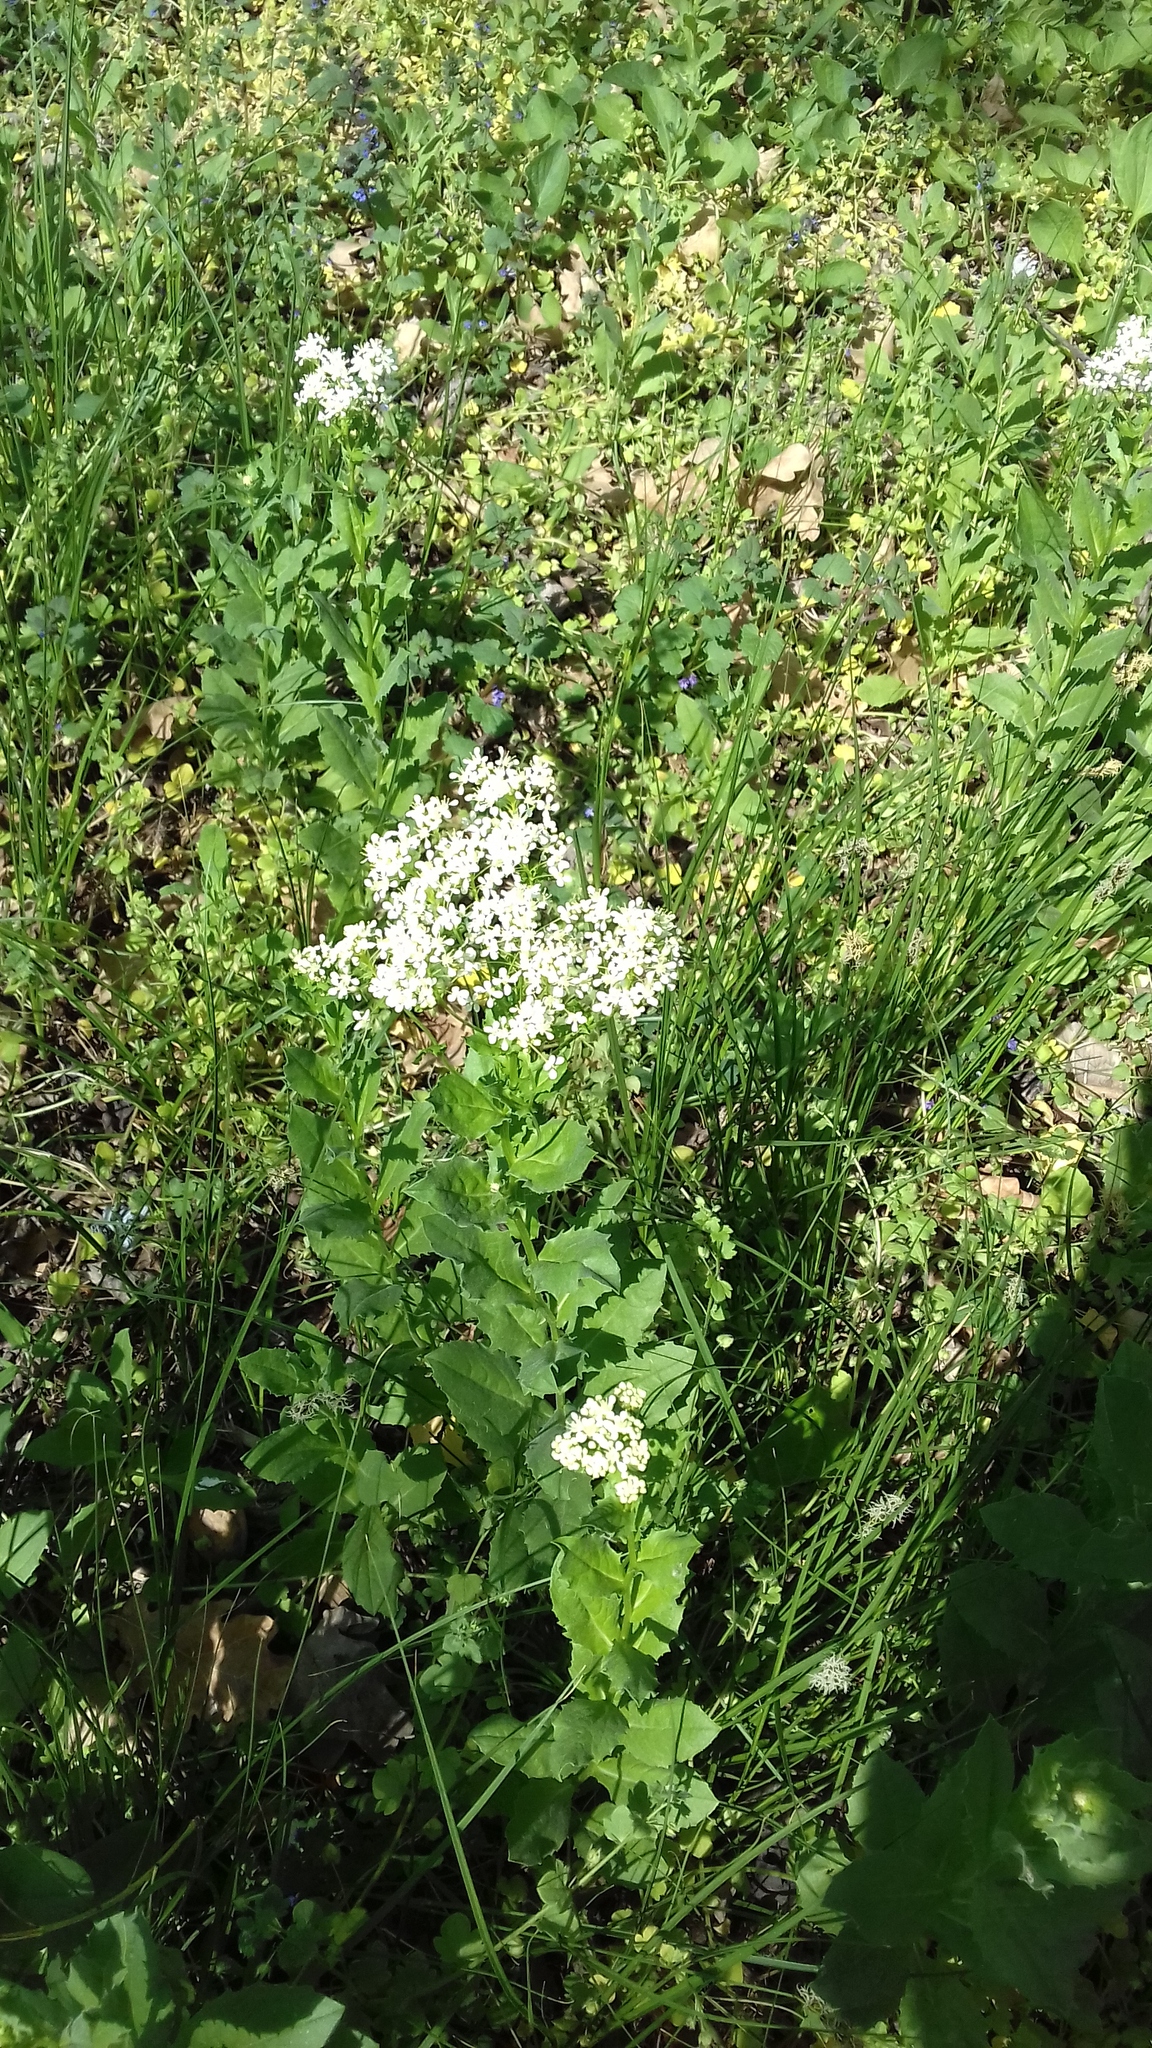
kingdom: Plantae
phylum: Tracheophyta
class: Magnoliopsida
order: Brassicales
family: Brassicaceae
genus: Lepidium
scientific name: Lepidium draba
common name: Hoary cress
